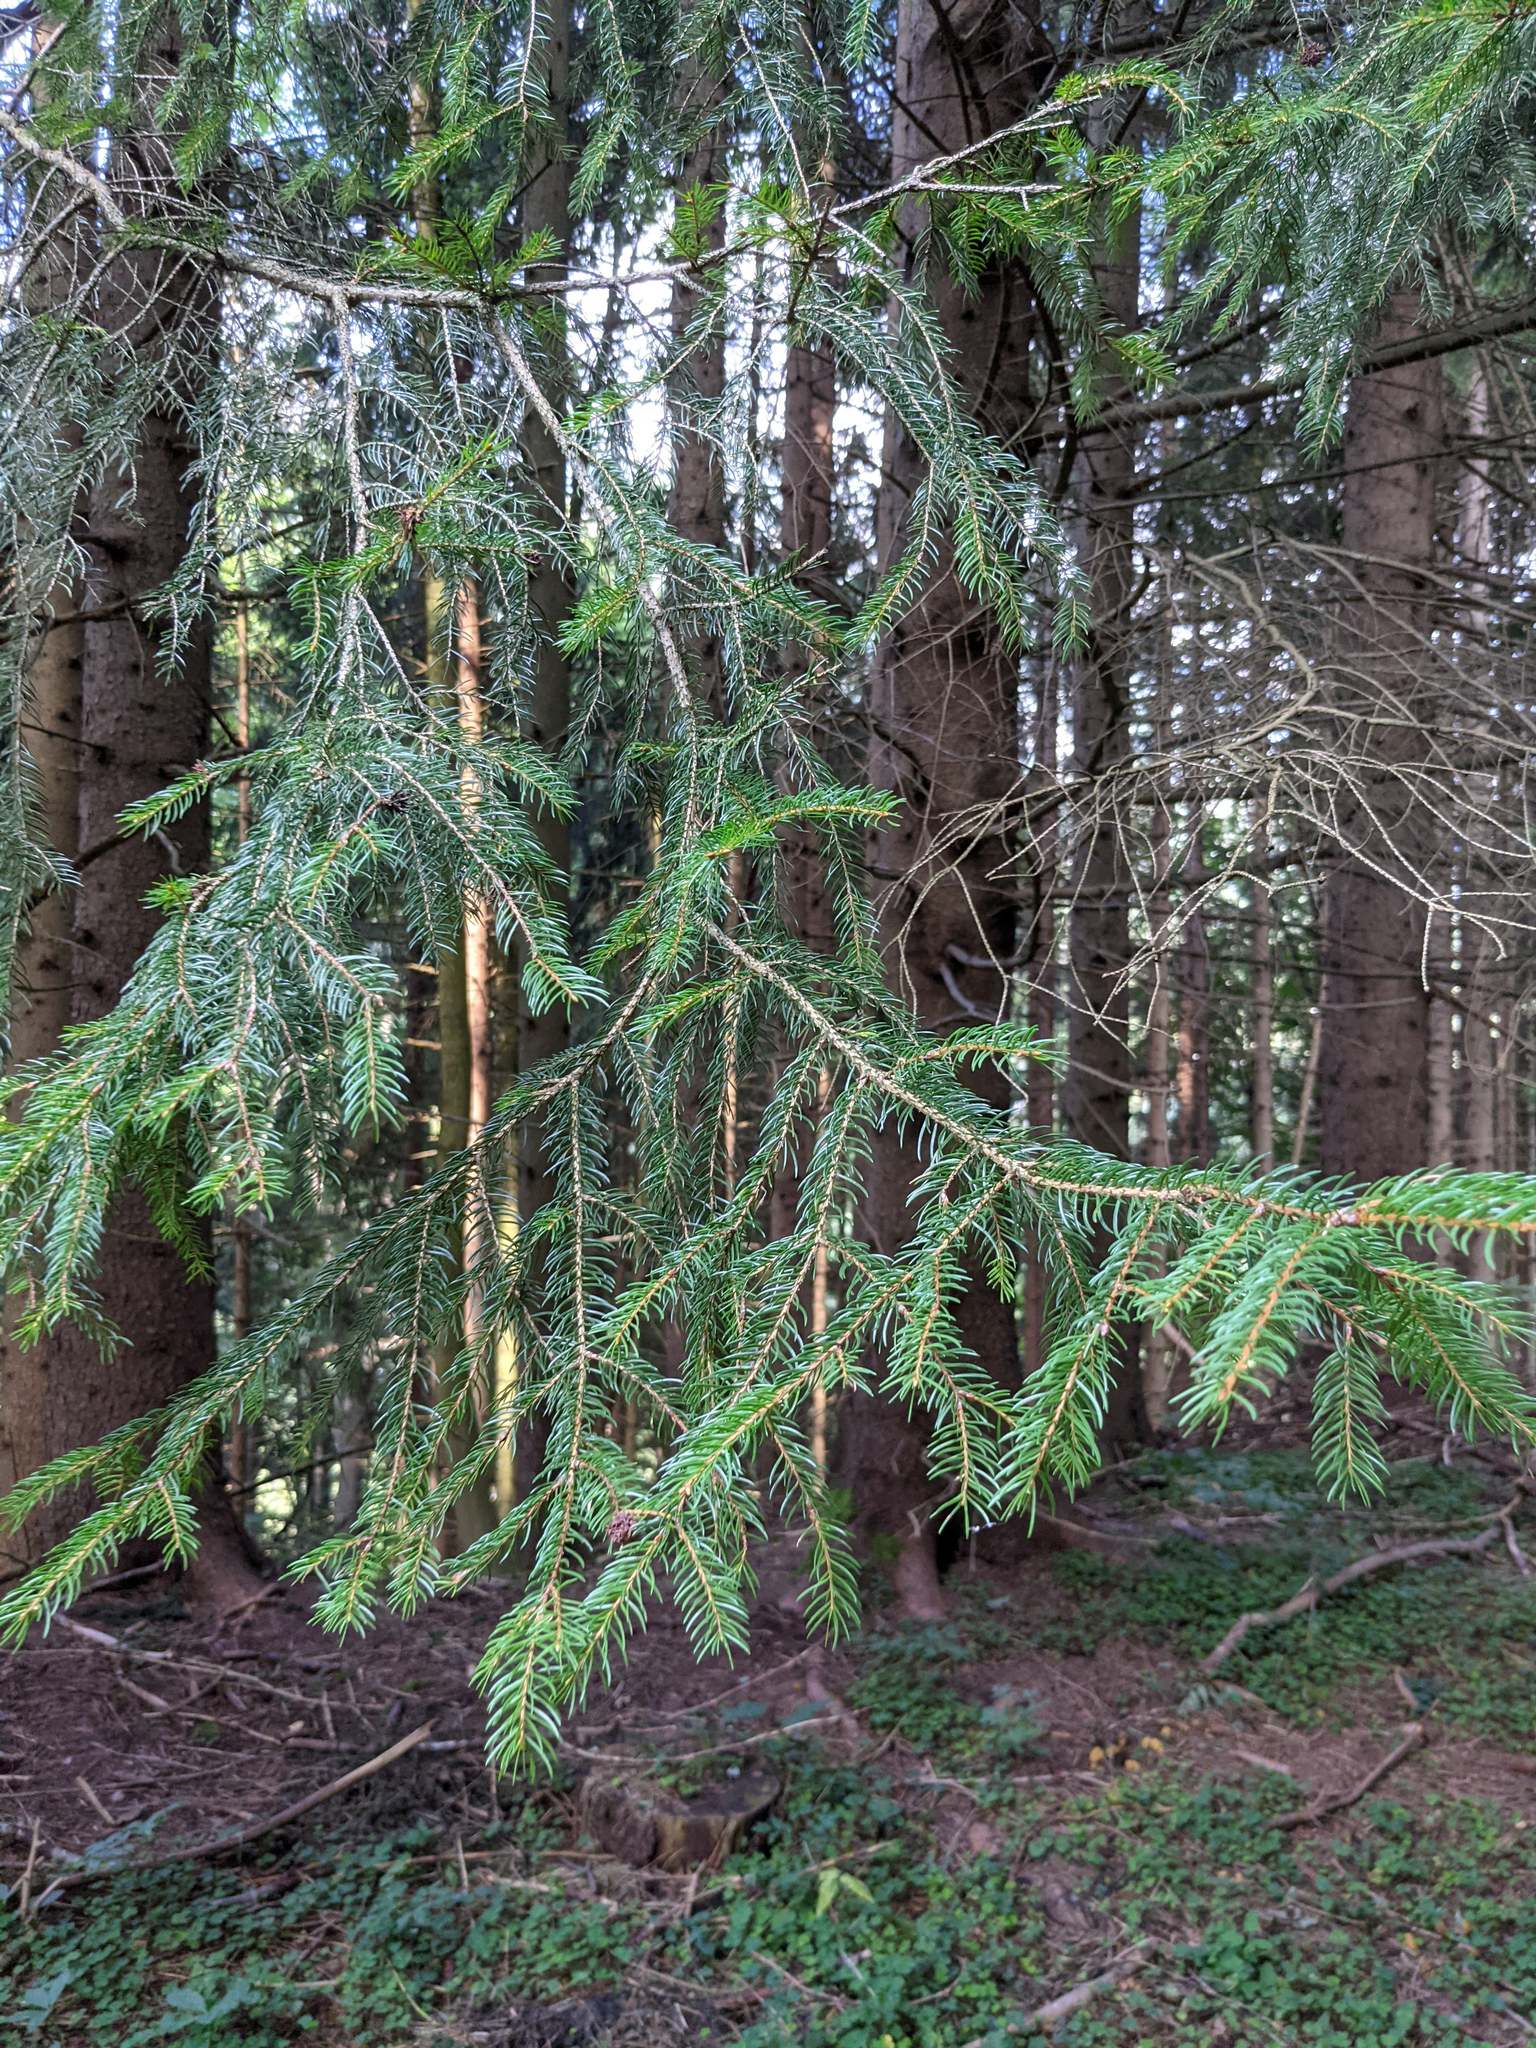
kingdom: Plantae
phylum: Tracheophyta
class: Pinopsida
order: Pinales
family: Pinaceae
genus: Picea
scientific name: Picea abies
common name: Norway spruce
